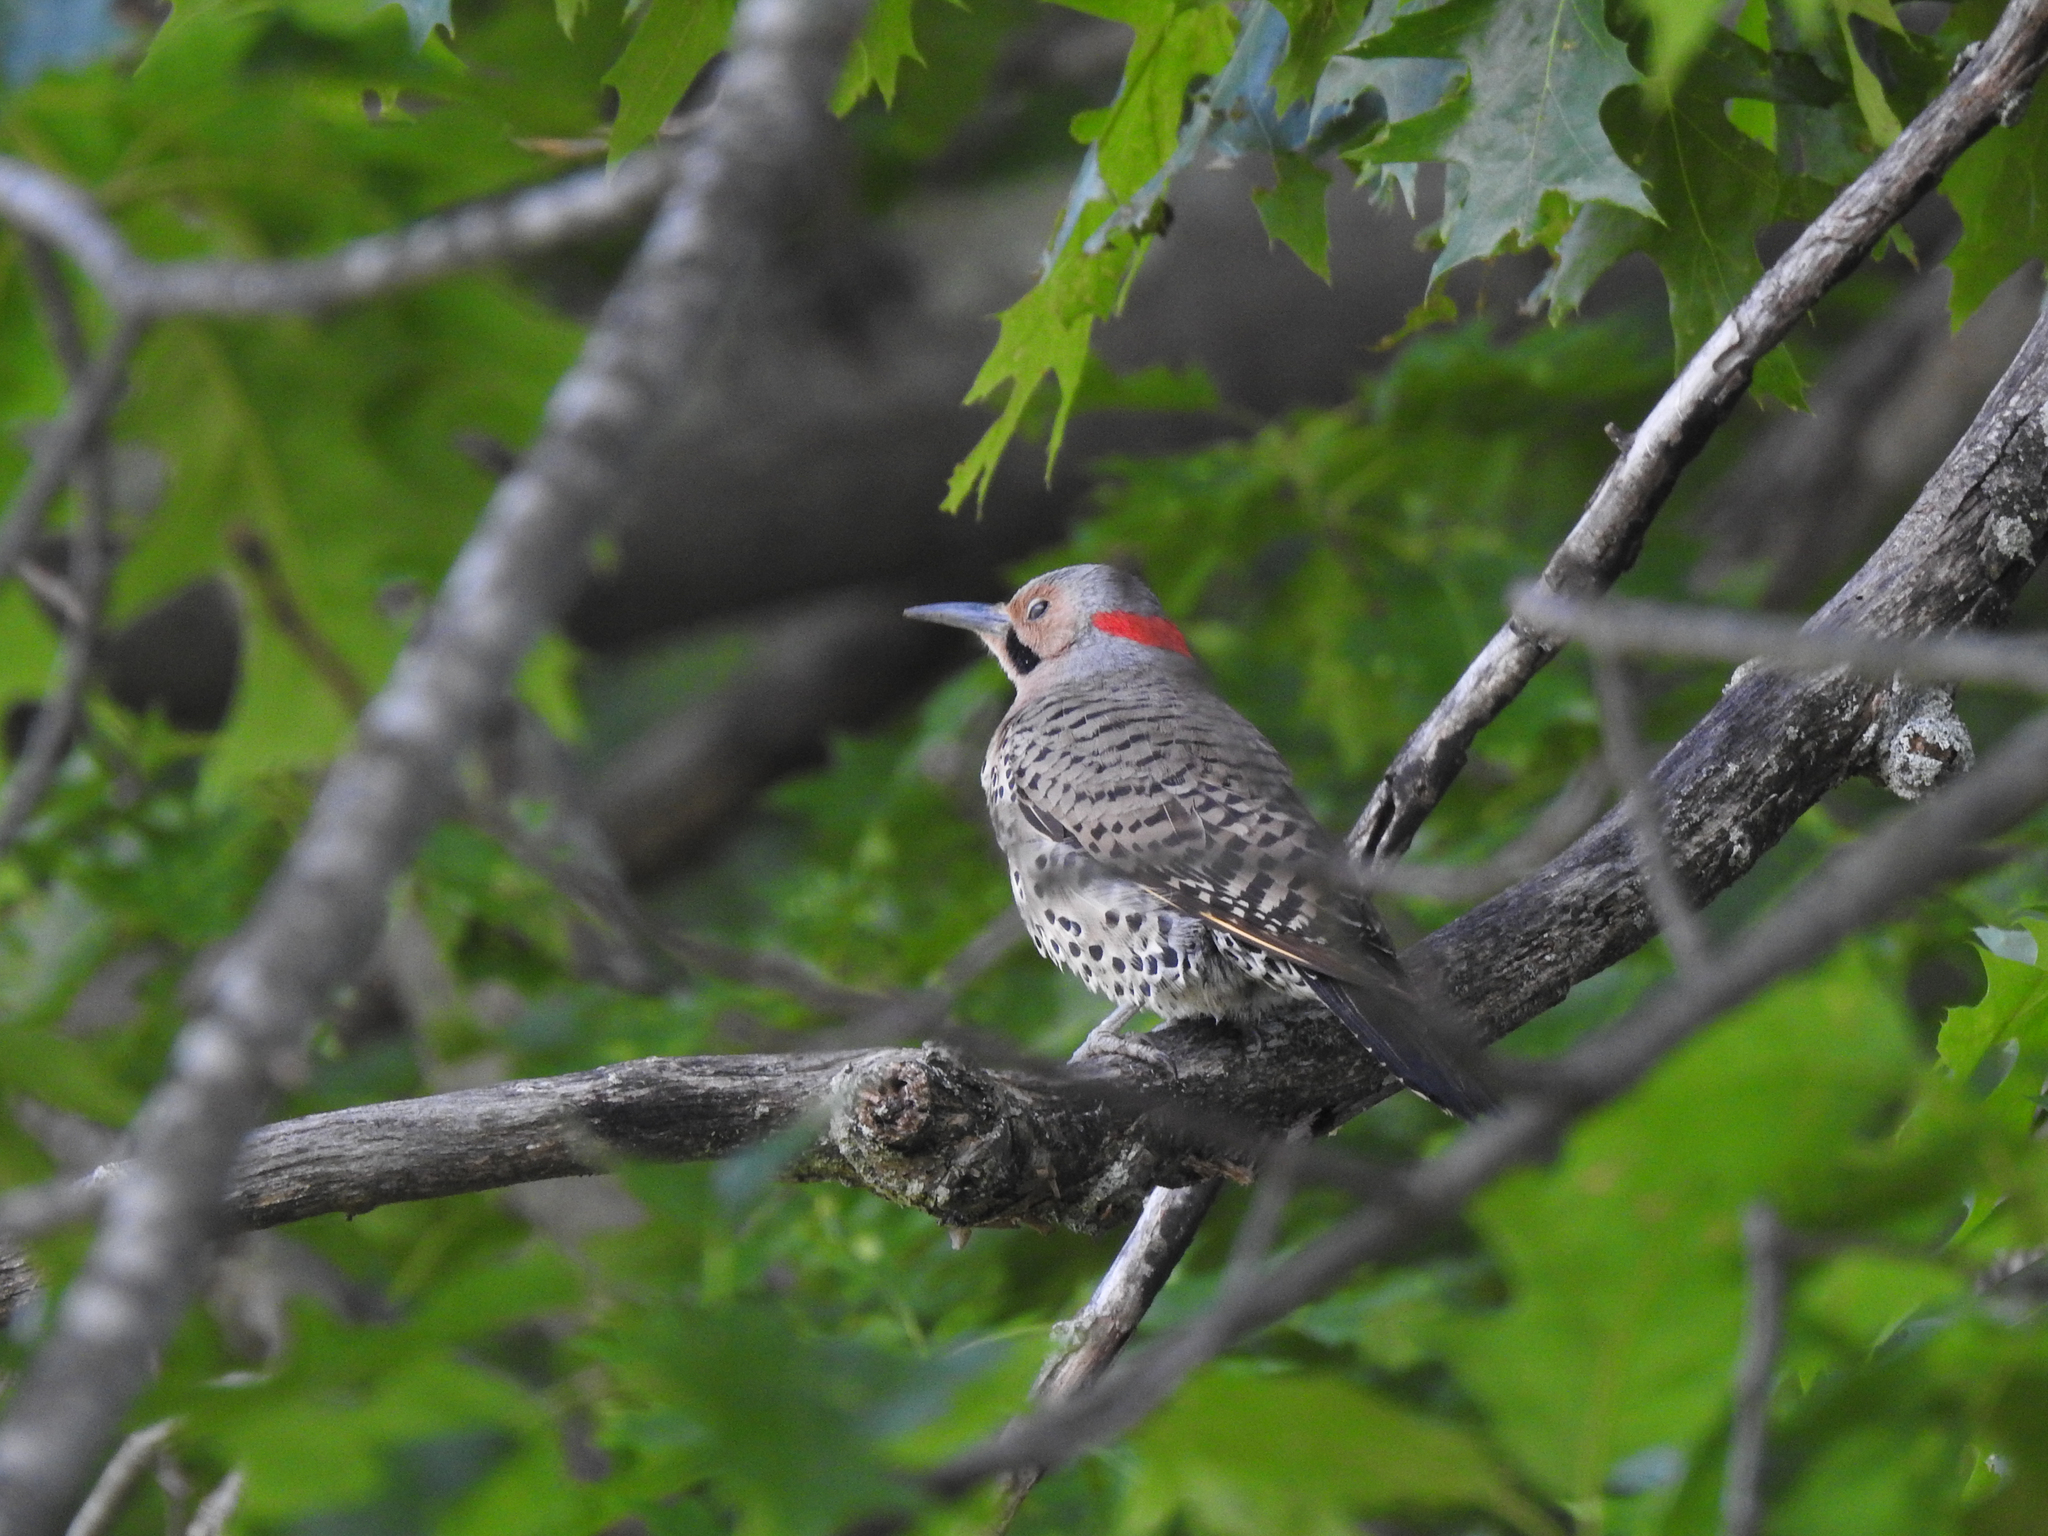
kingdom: Animalia
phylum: Chordata
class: Aves
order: Piciformes
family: Picidae
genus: Colaptes
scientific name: Colaptes auratus
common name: Northern flicker
